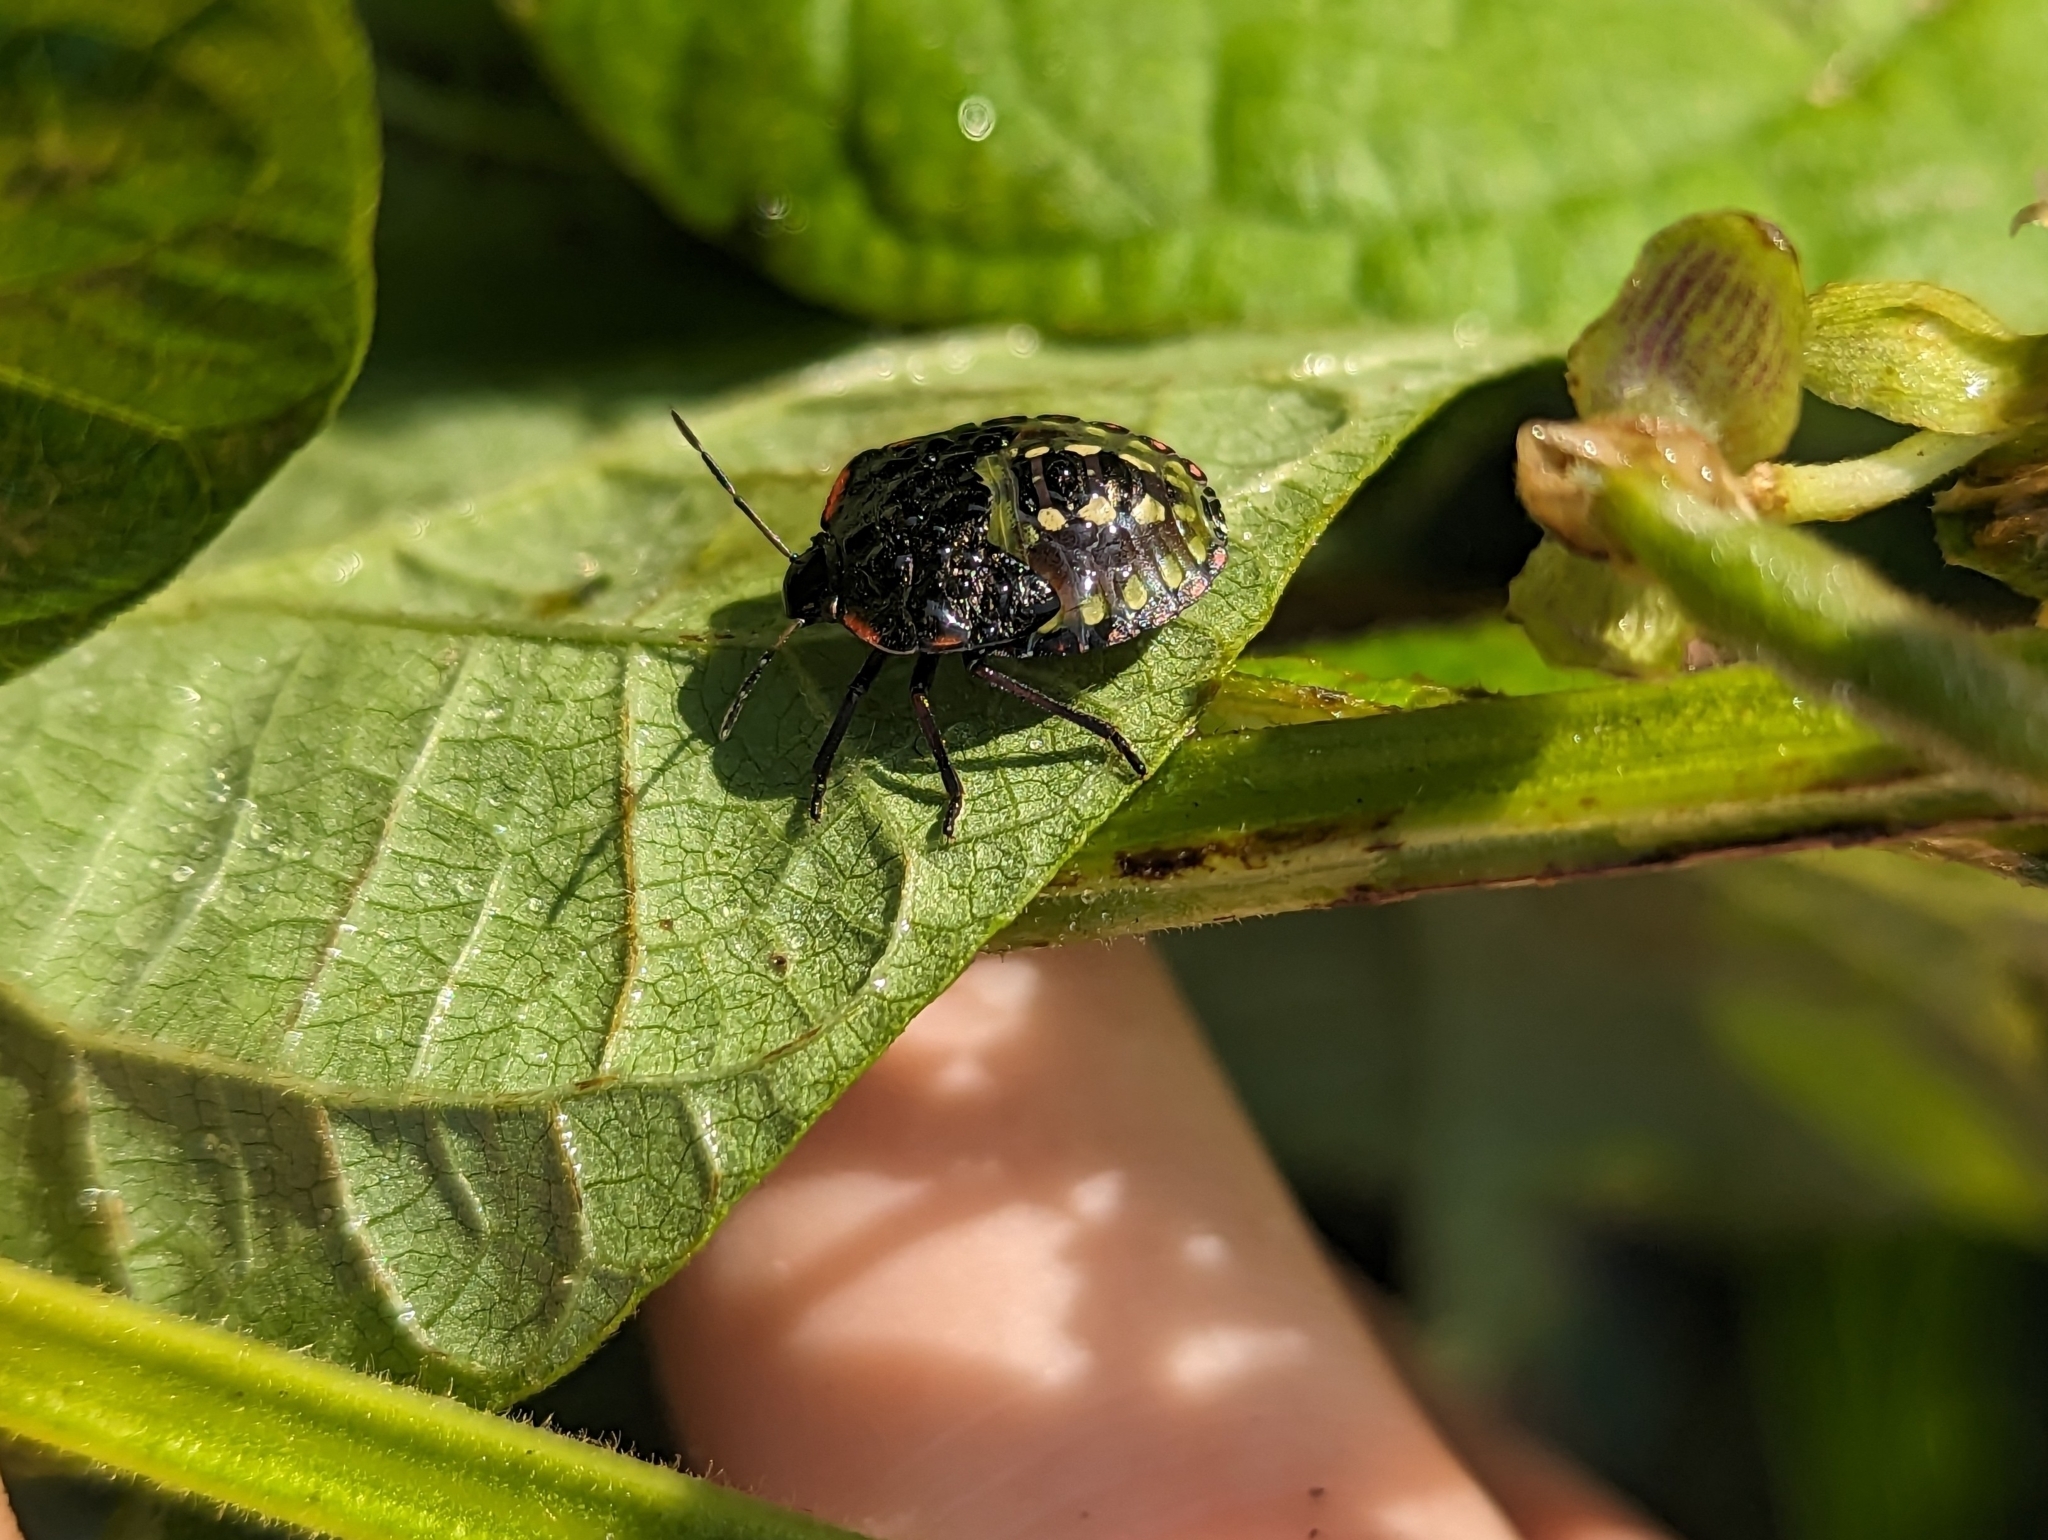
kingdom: Animalia
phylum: Arthropoda
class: Insecta
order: Hemiptera
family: Pentatomidae
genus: Nezara
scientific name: Nezara viridula
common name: Southern green stink bug
